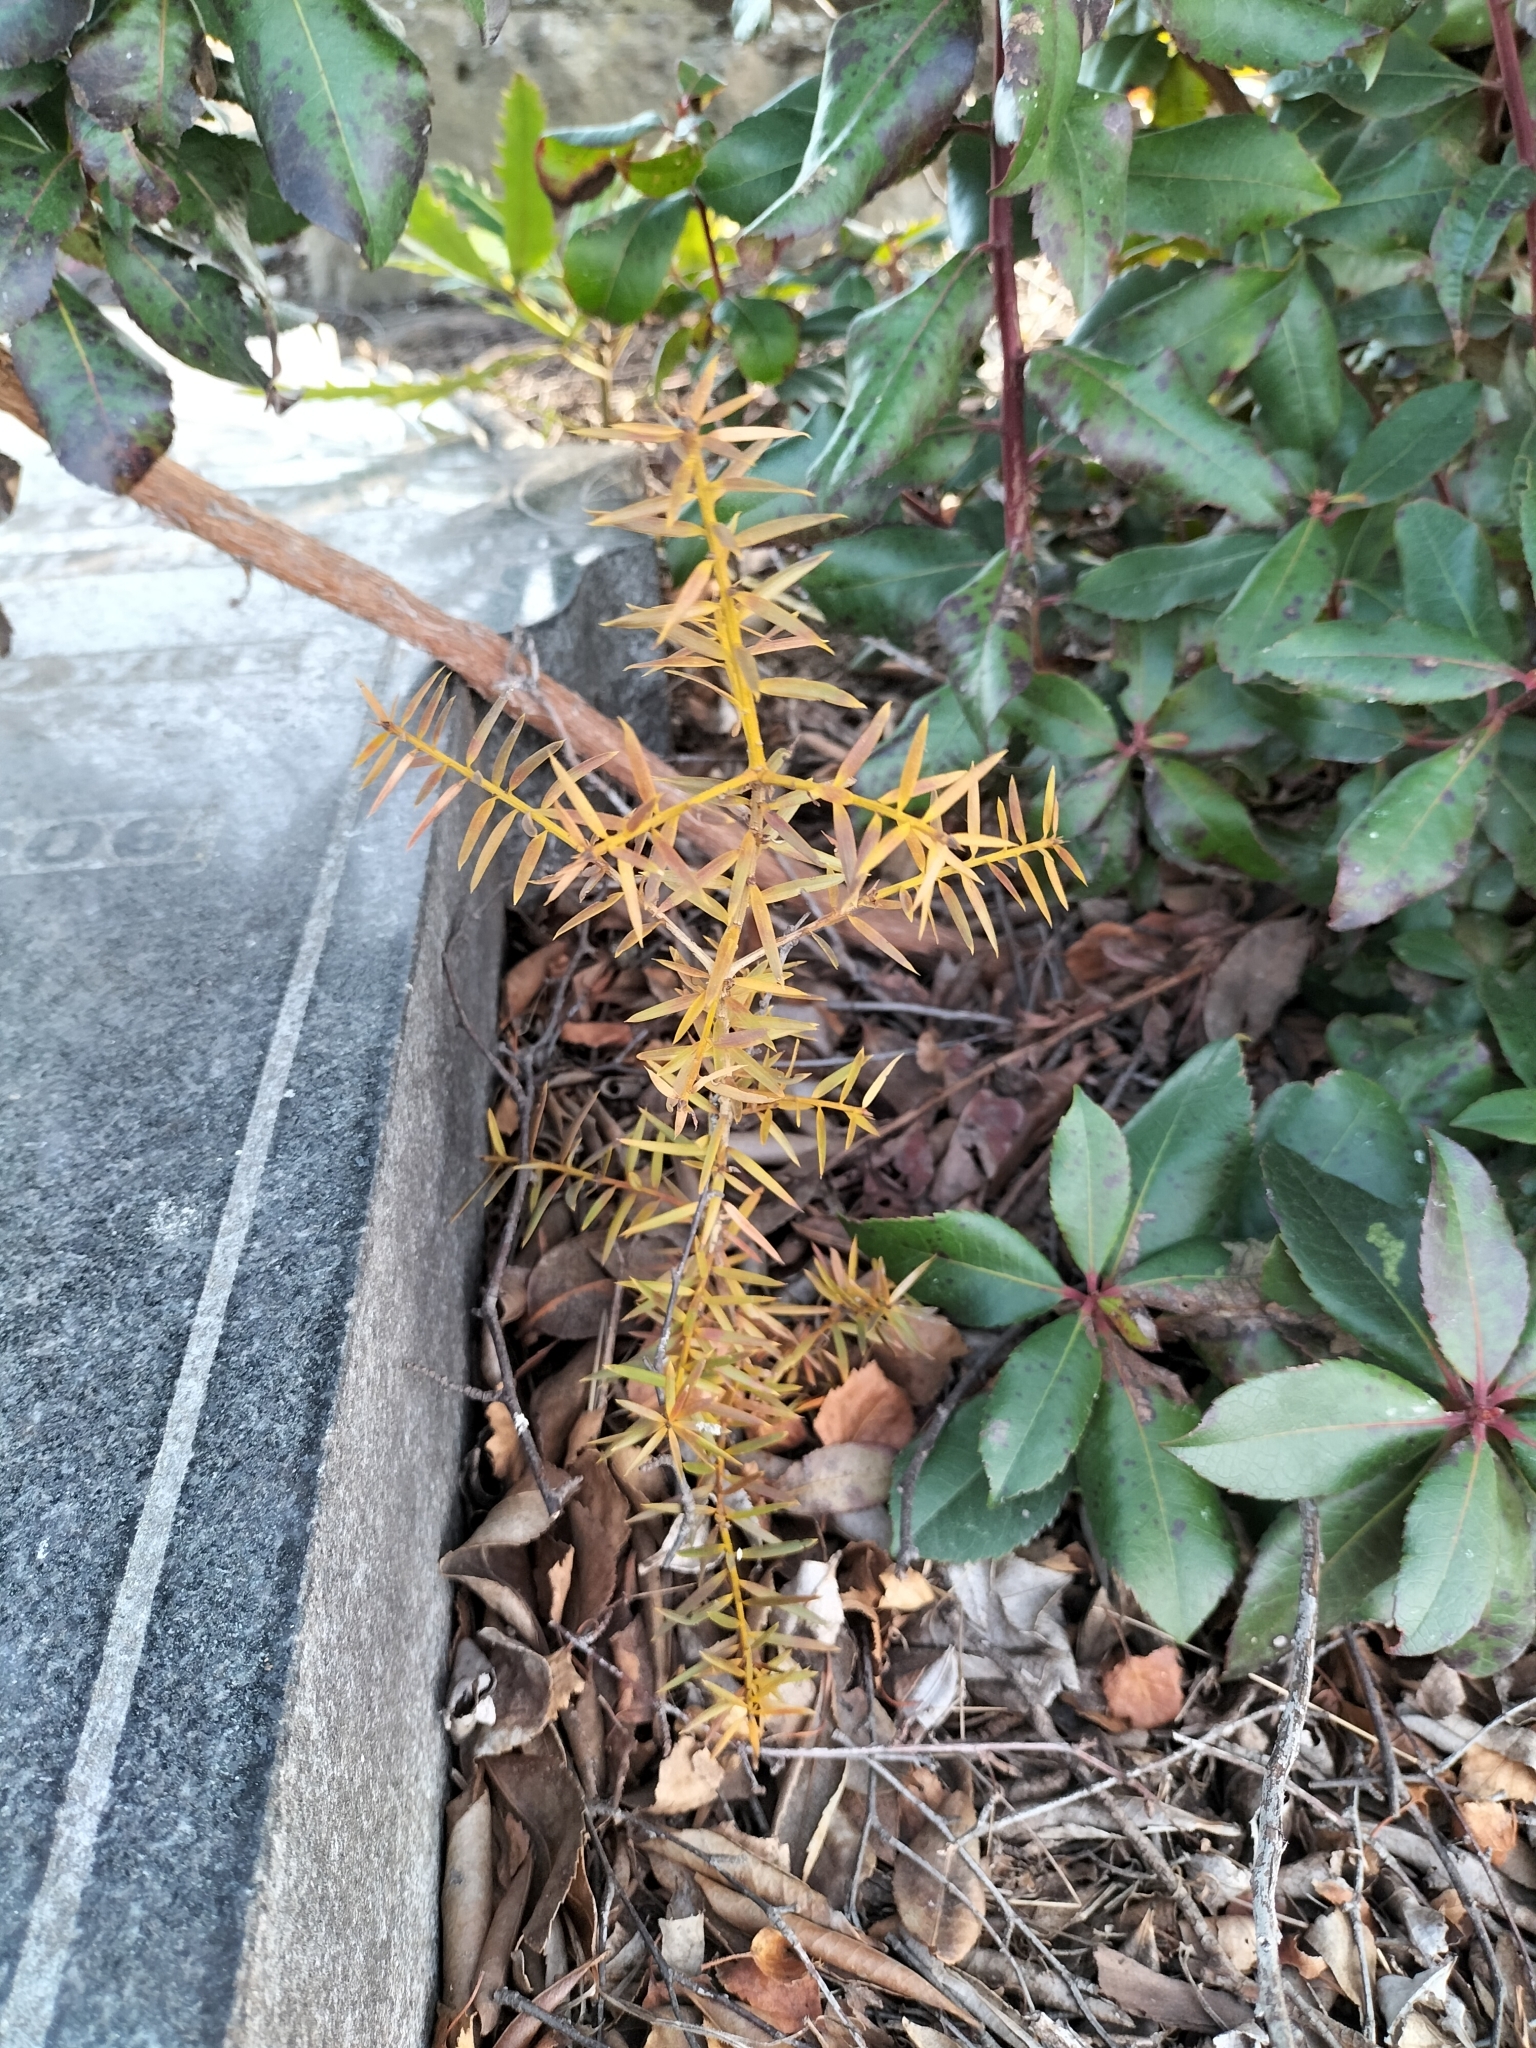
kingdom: Plantae
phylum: Tracheophyta
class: Pinopsida
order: Pinales
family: Podocarpaceae
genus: Podocarpus
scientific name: Podocarpus totara
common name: Totara
